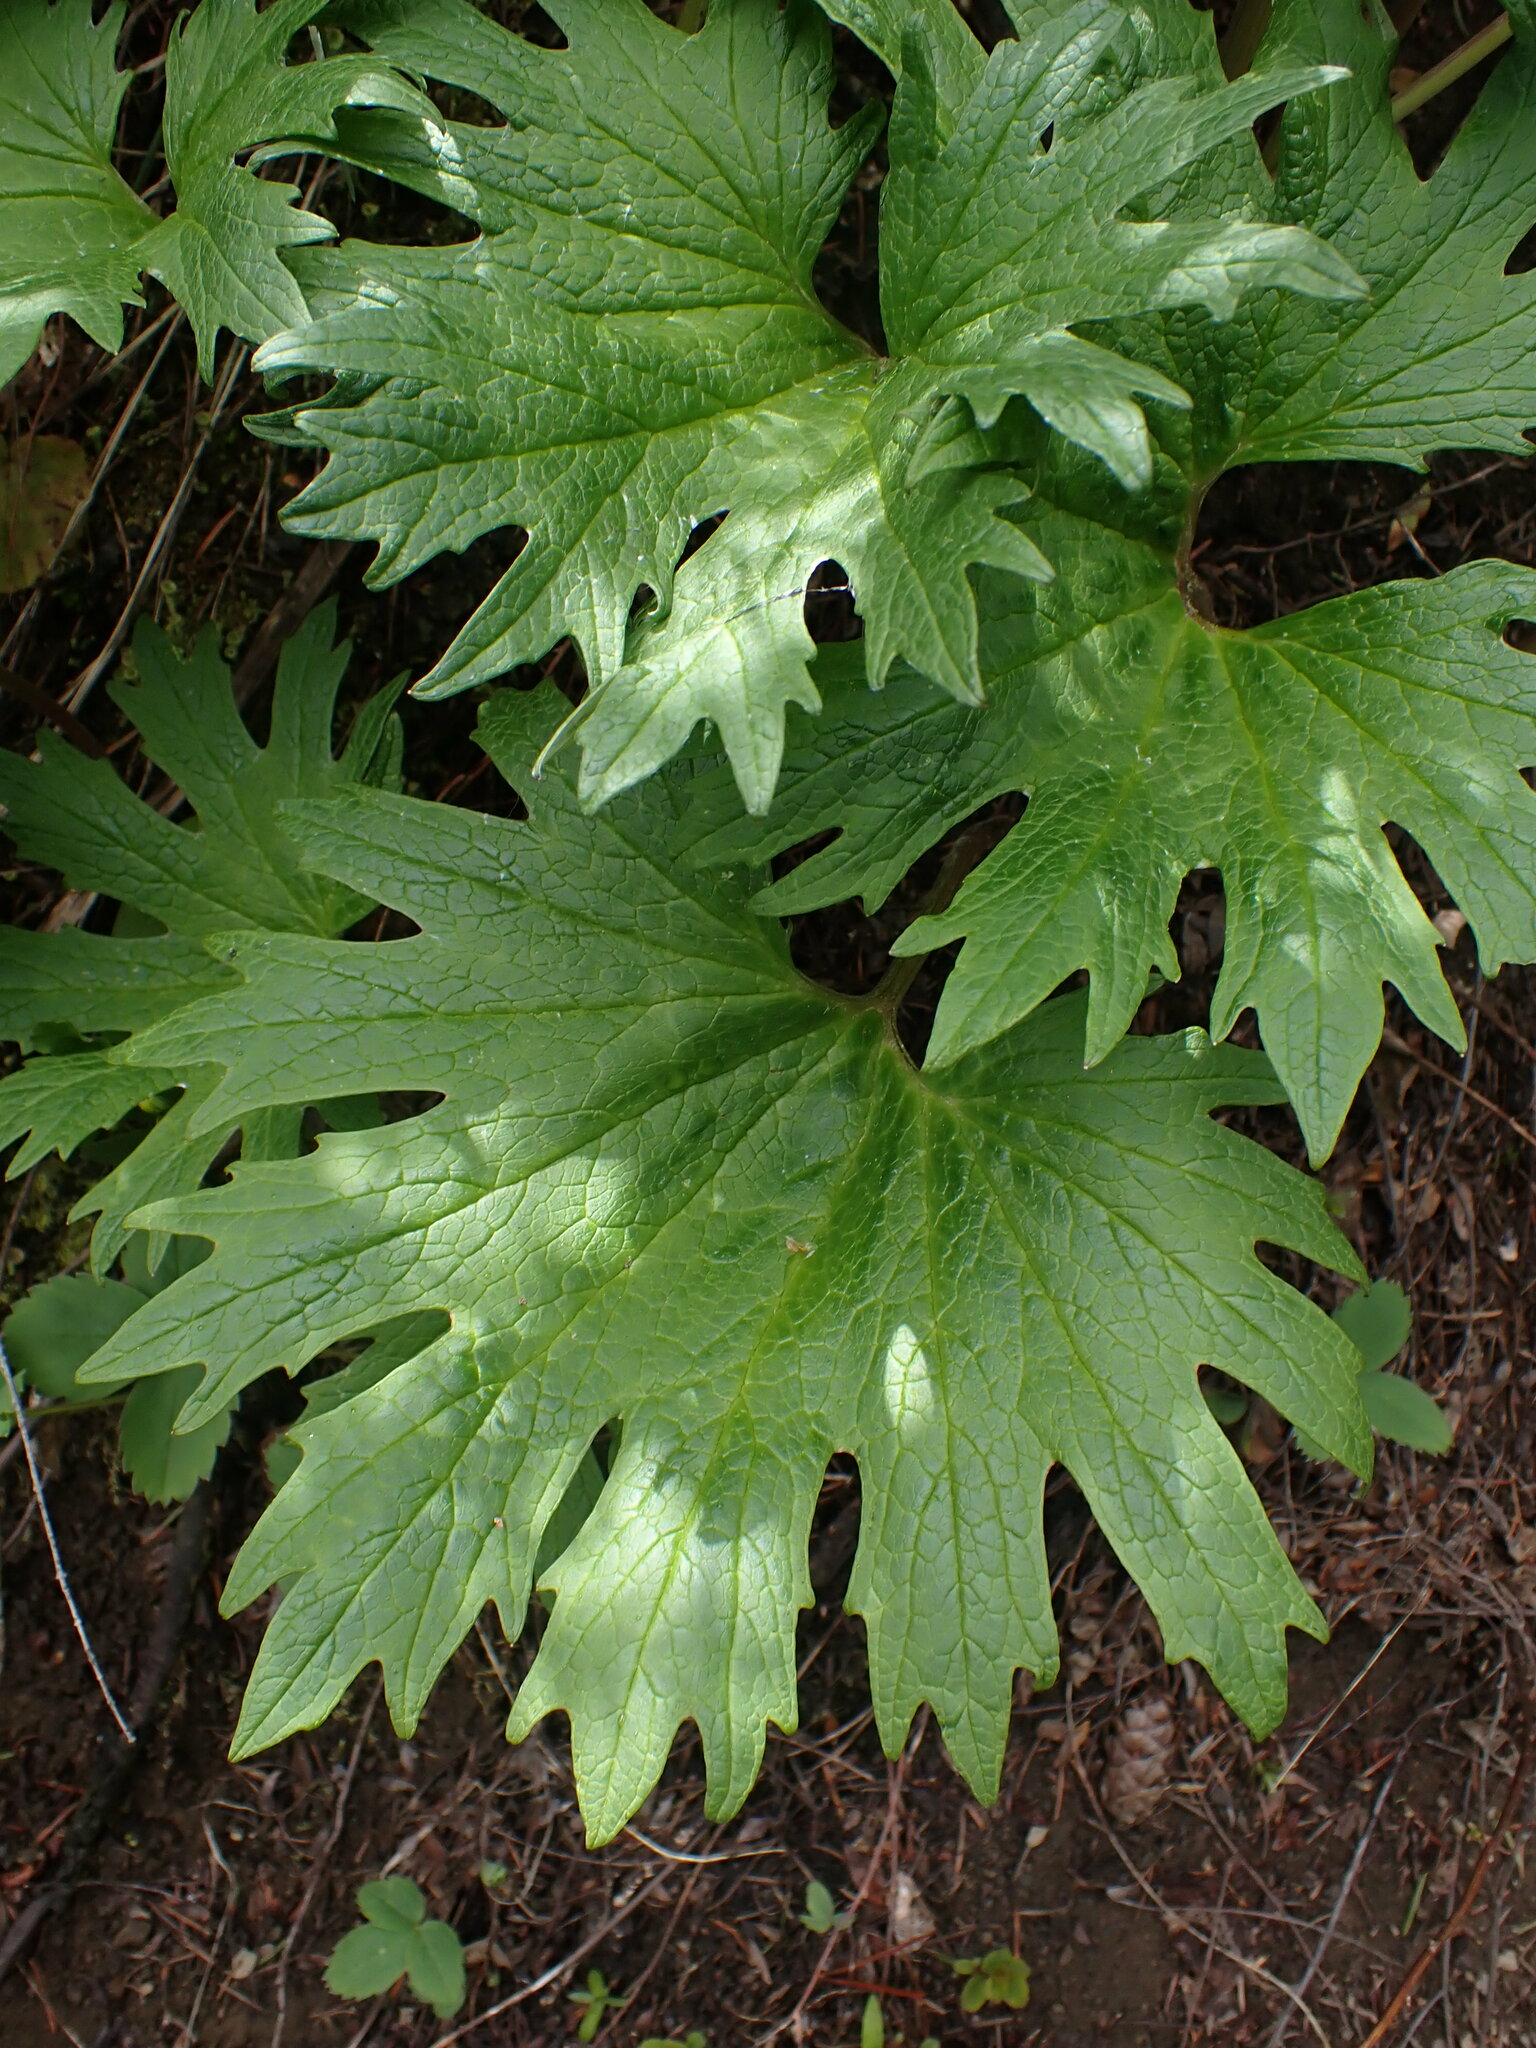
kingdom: Plantae
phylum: Tracheophyta
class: Magnoliopsida
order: Asterales
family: Asteraceae
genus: Cacaliopsis
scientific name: Cacaliopsis nardosmia
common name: Silvercrown
